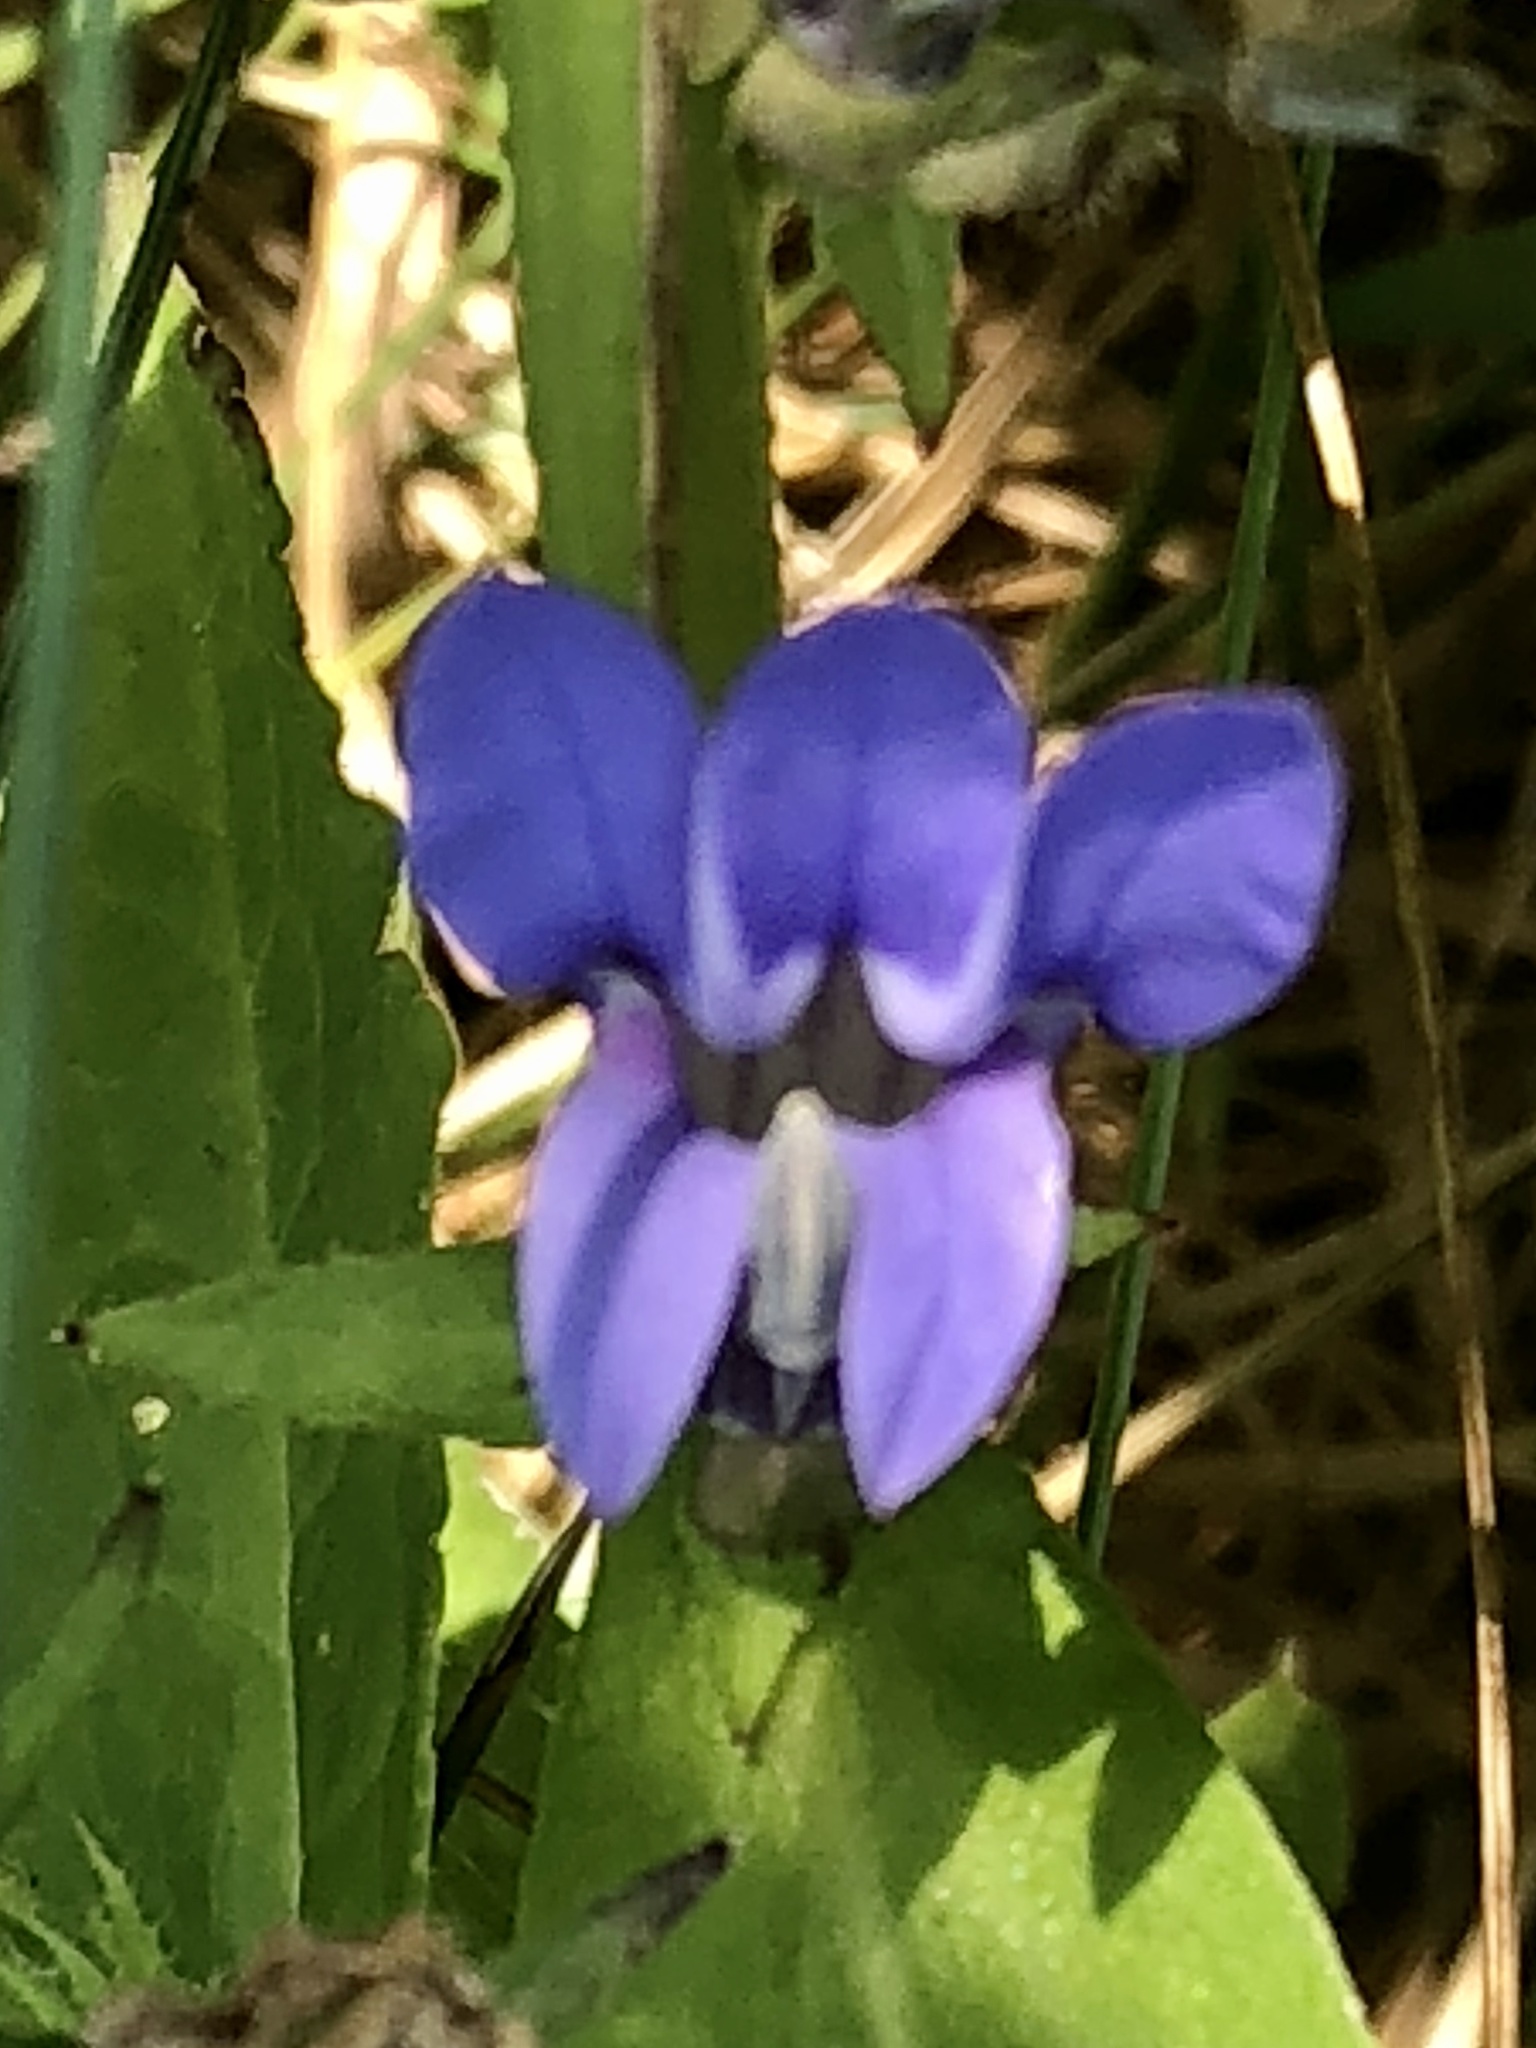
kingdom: Plantae
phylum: Tracheophyta
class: Magnoliopsida
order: Asterales
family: Campanulaceae
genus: Lobelia
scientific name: Lobelia siphilitica
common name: Great lobelia
